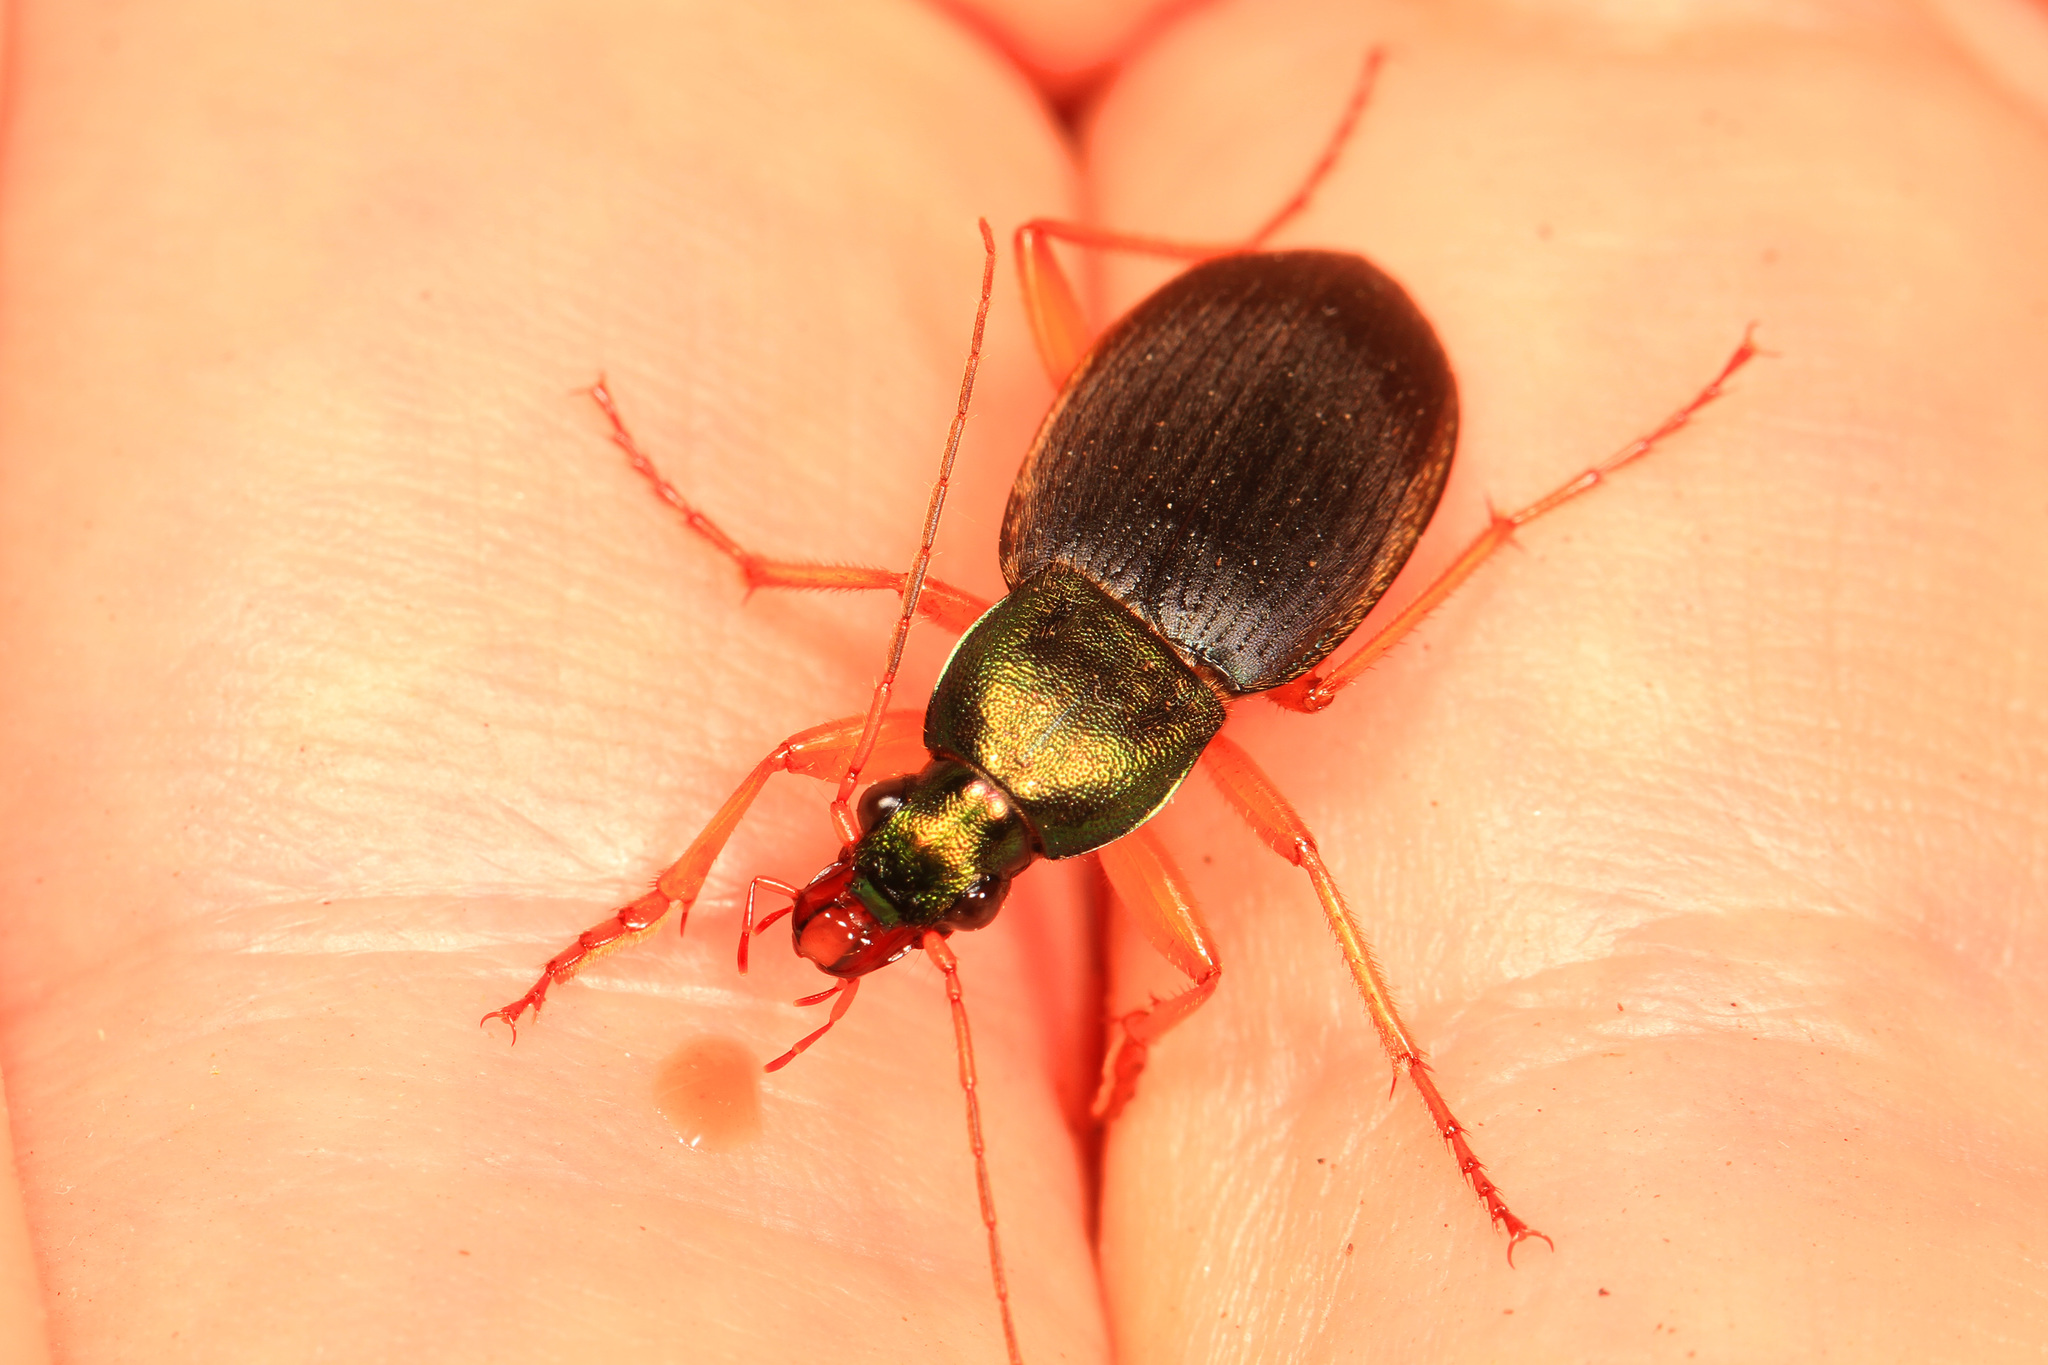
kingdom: Animalia
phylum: Arthropoda
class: Insecta
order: Coleoptera
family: Carabidae
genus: Chlaenius
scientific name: Chlaenius aestivus
